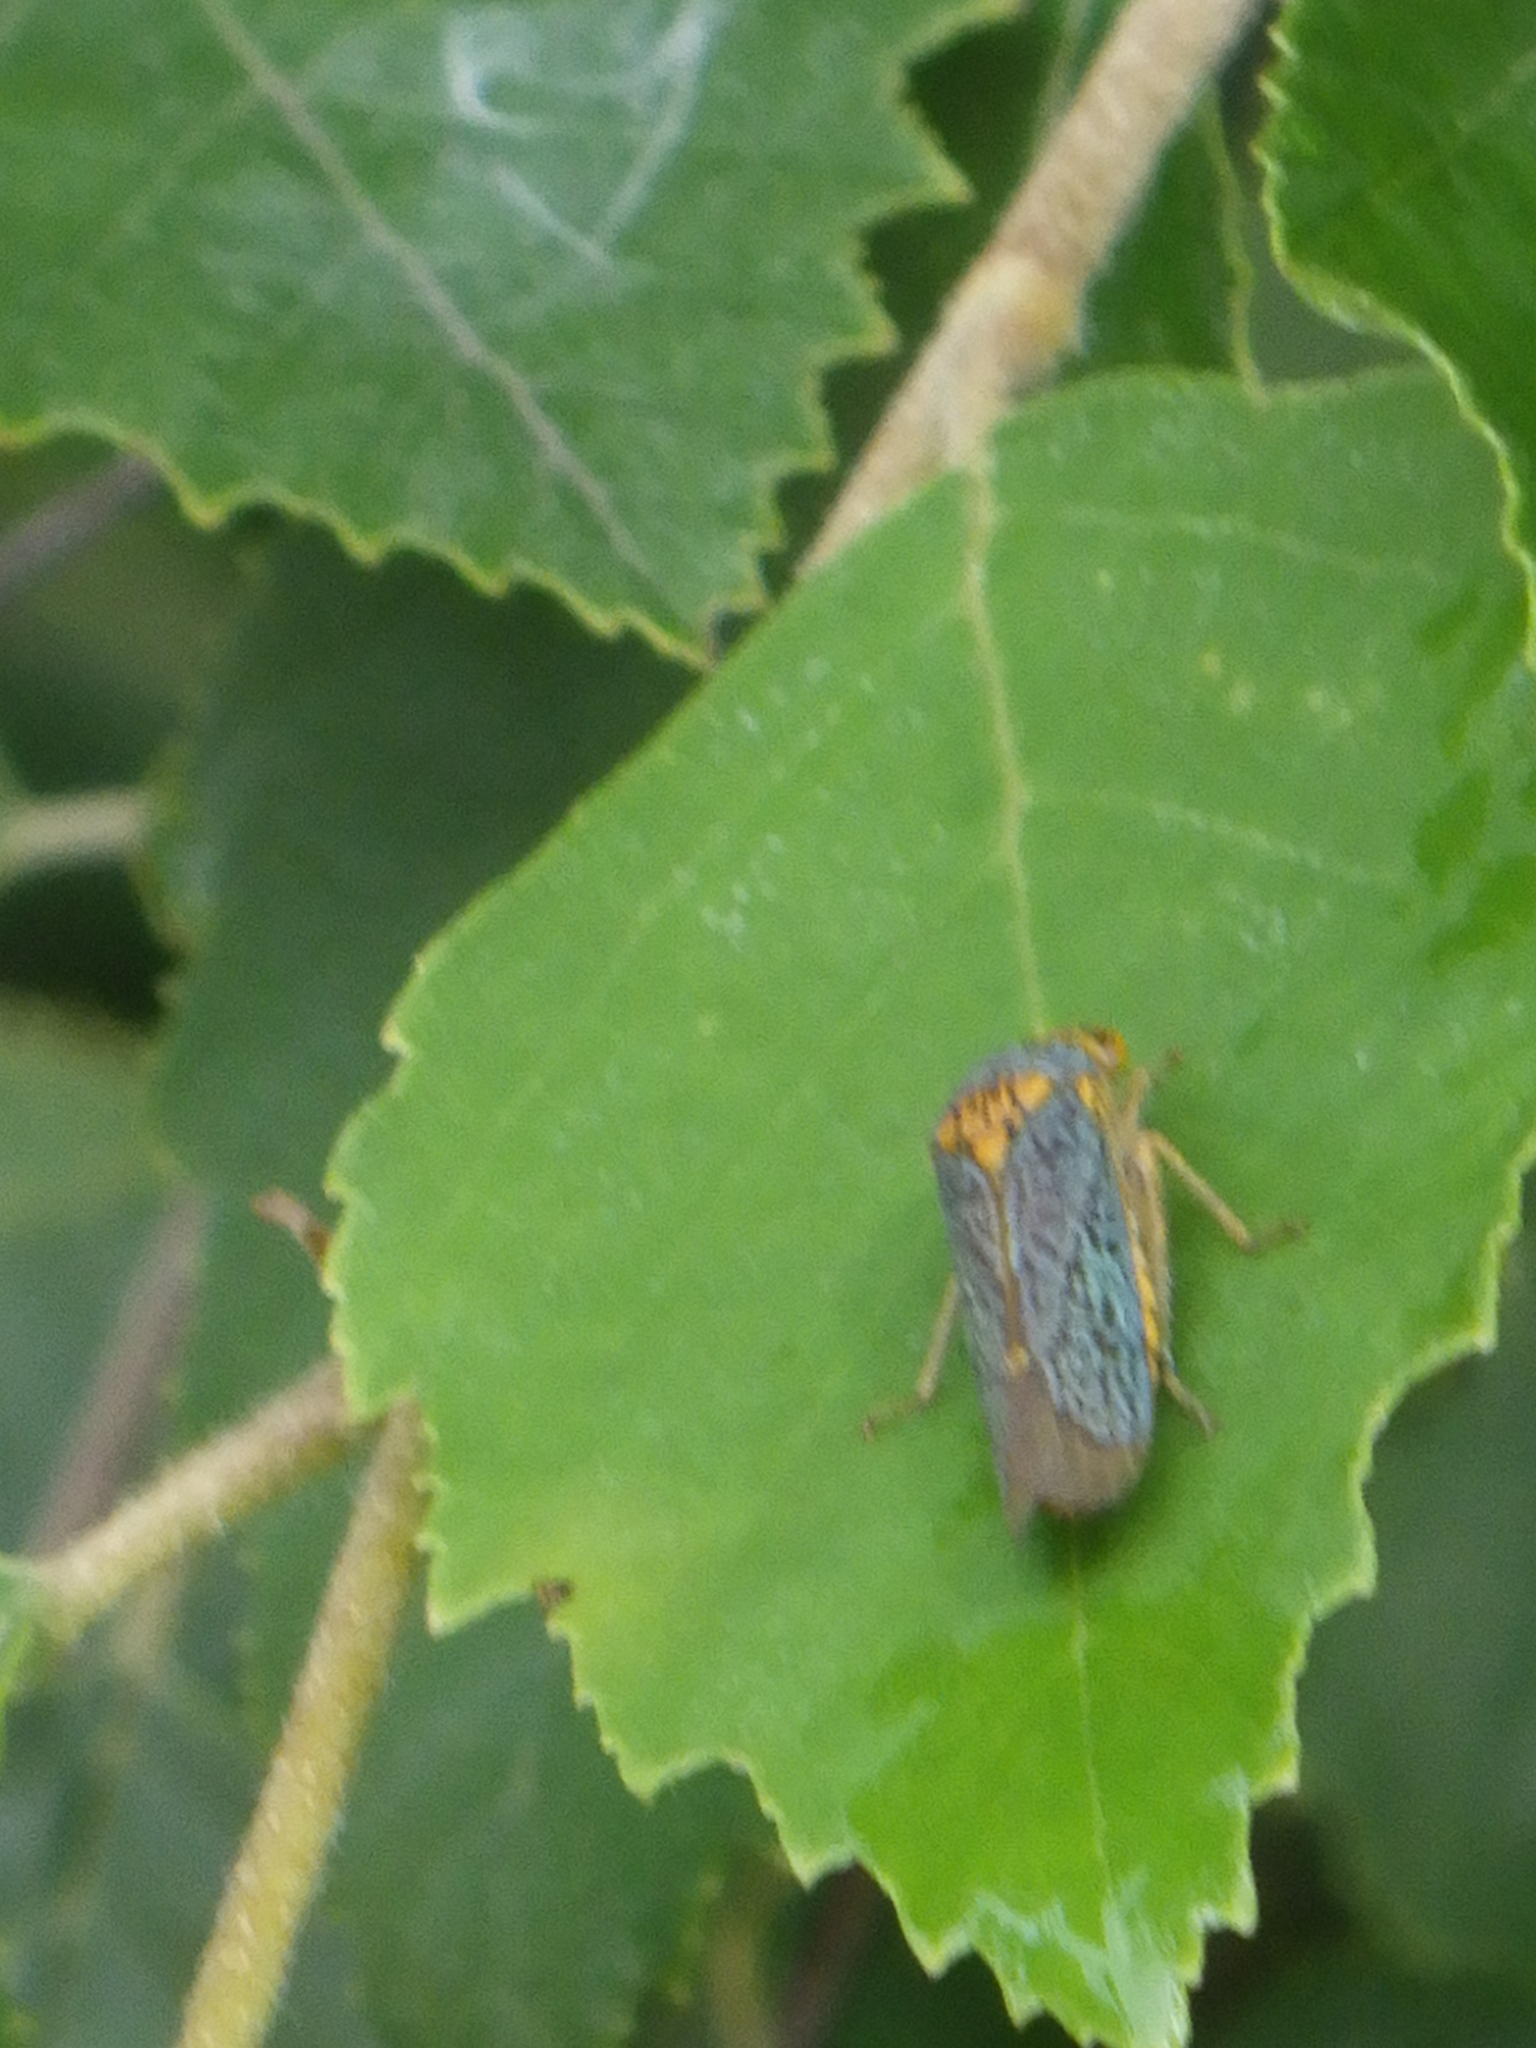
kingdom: Animalia
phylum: Arthropoda
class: Insecta
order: Hemiptera
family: Cicadellidae
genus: Oncometopia
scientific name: Oncometopia orbona
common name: Broad-headed sharpshooter
